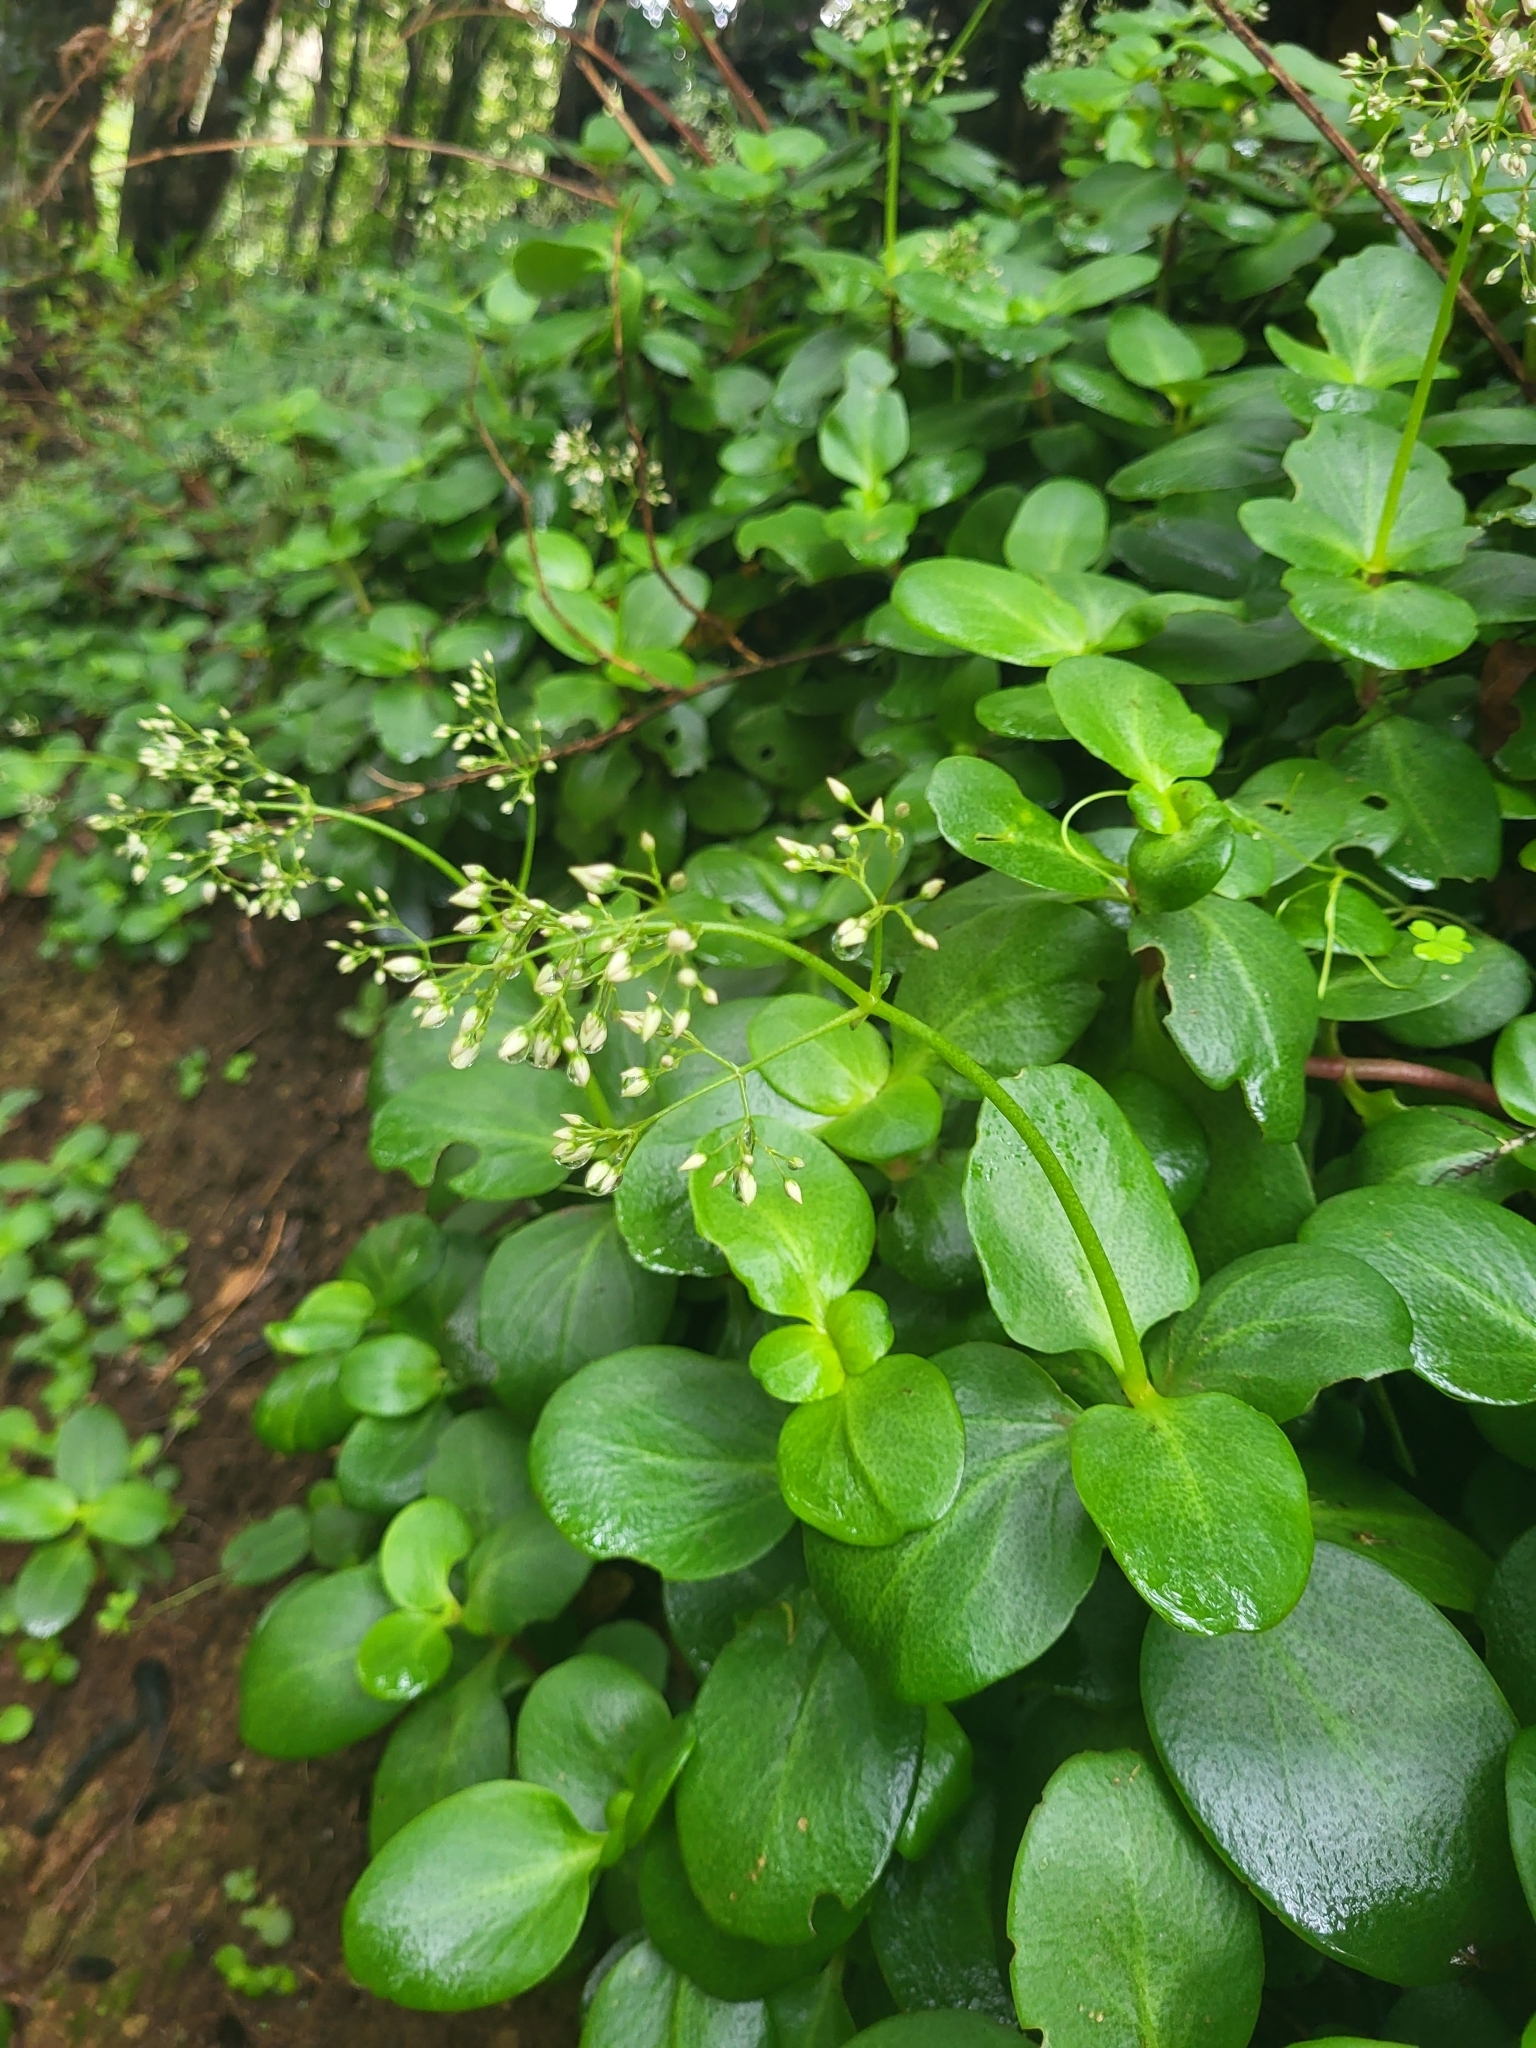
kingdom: Plantae
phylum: Tracheophyta
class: Magnoliopsida
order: Saxifragales
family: Crassulaceae
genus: Crassula
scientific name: Crassula multicava
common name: Cape province pygmyweed
